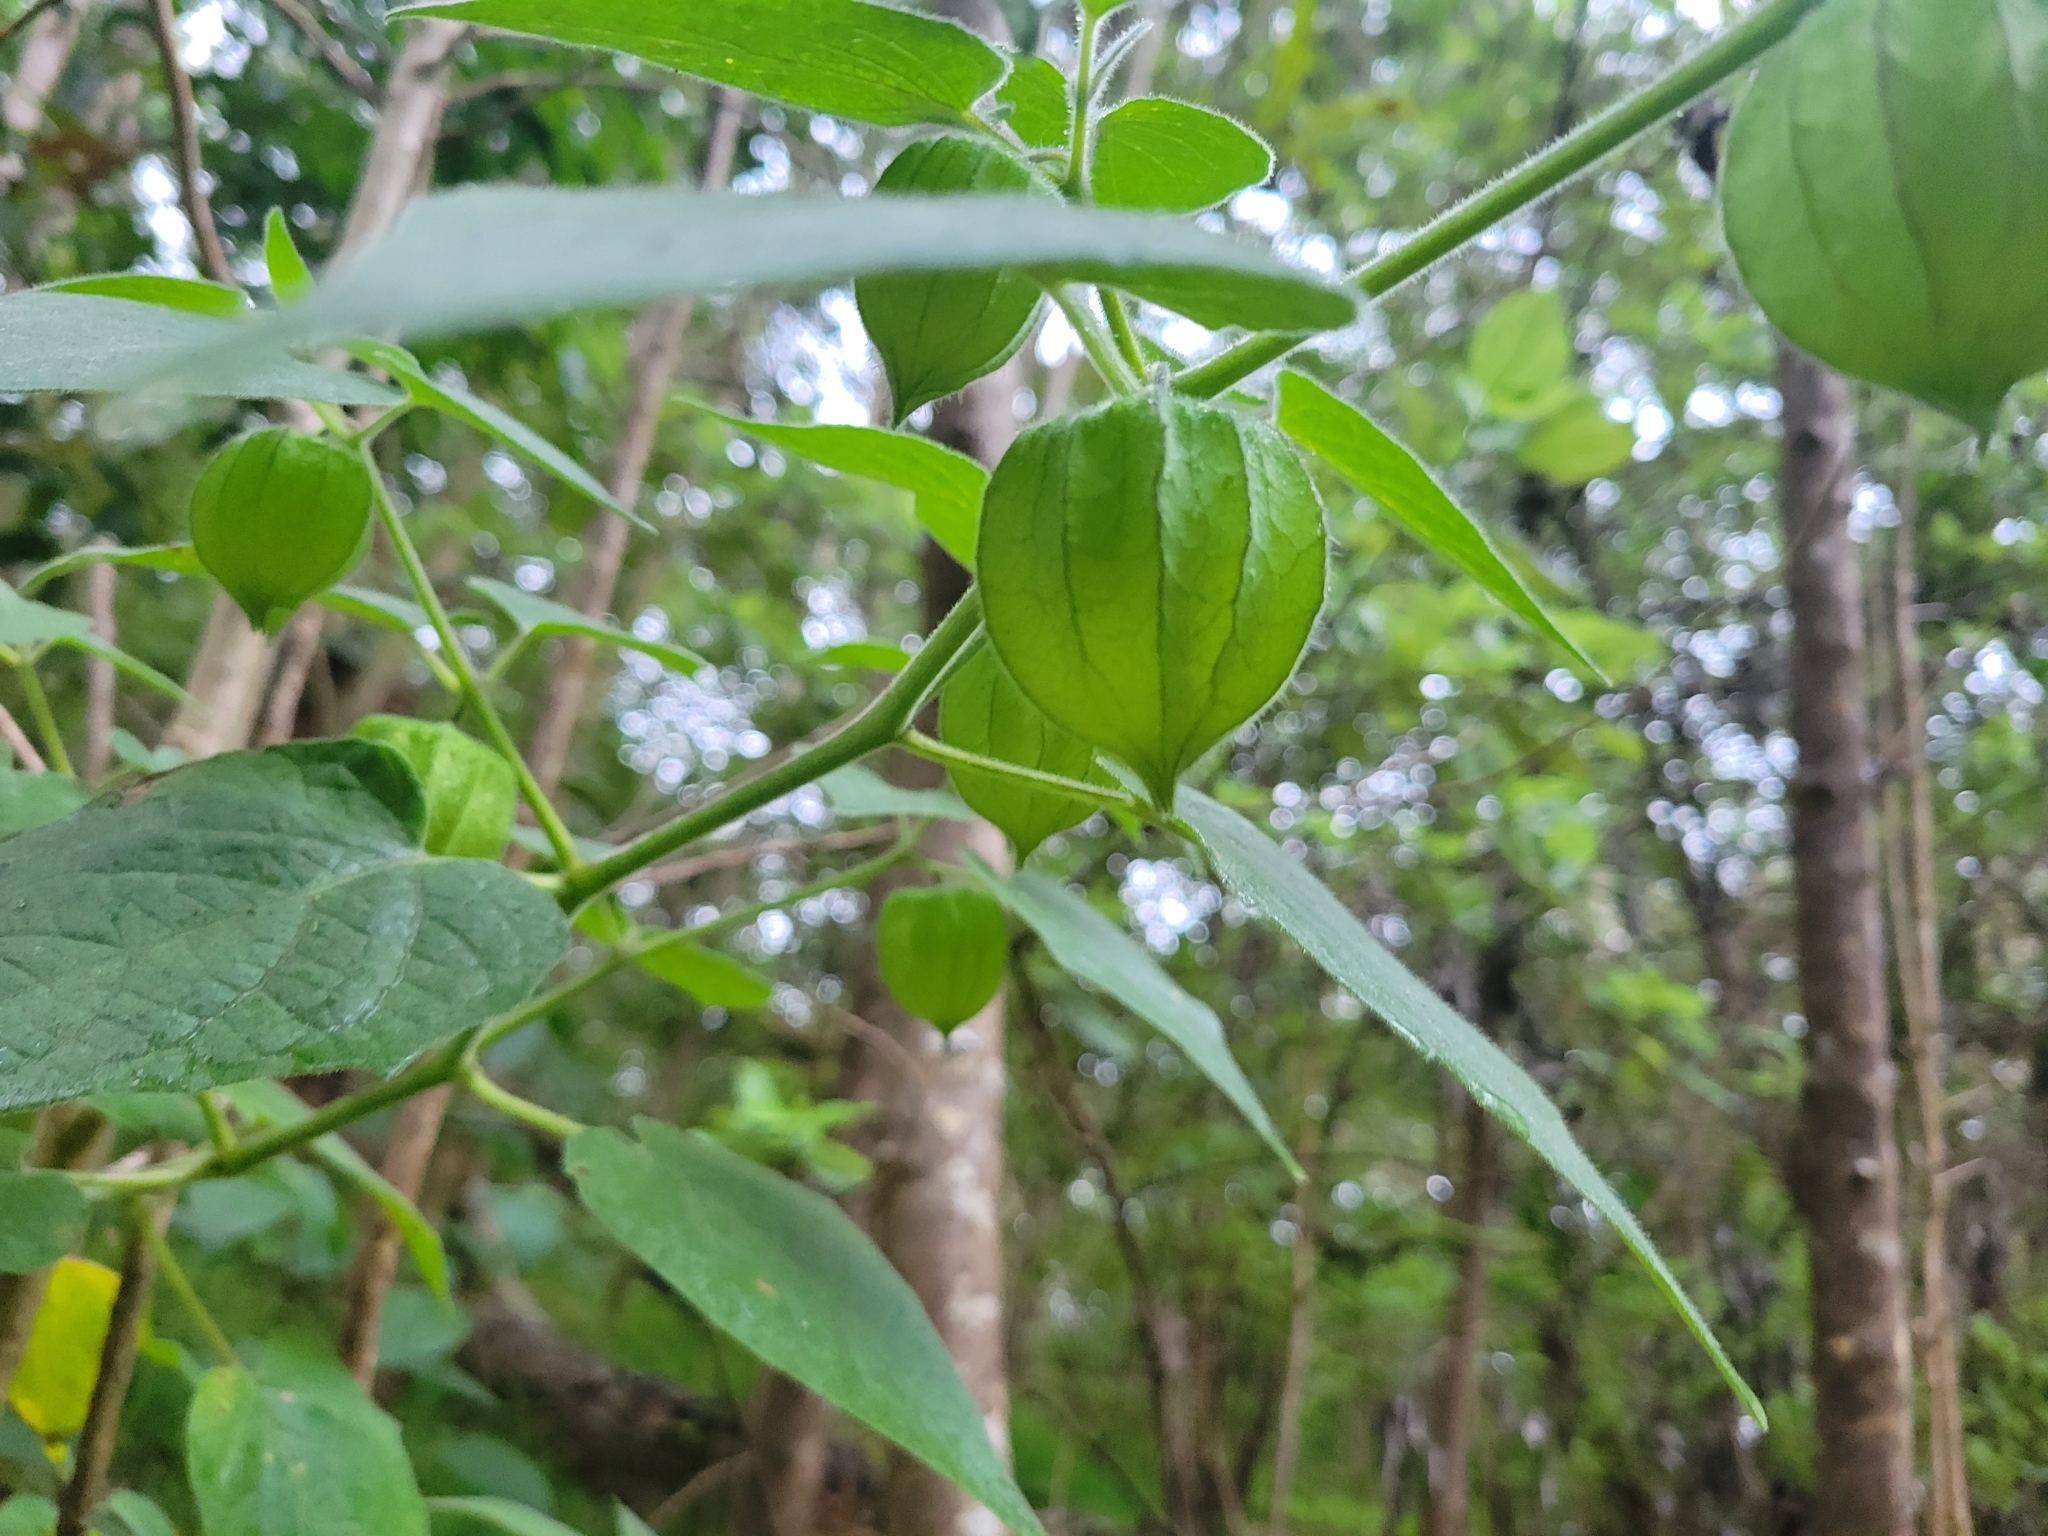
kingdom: Plantae
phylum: Tracheophyta
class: Magnoliopsida
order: Solanales
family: Solanaceae
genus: Physalis
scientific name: Physalis peruviana
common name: Cape-gooseberry
